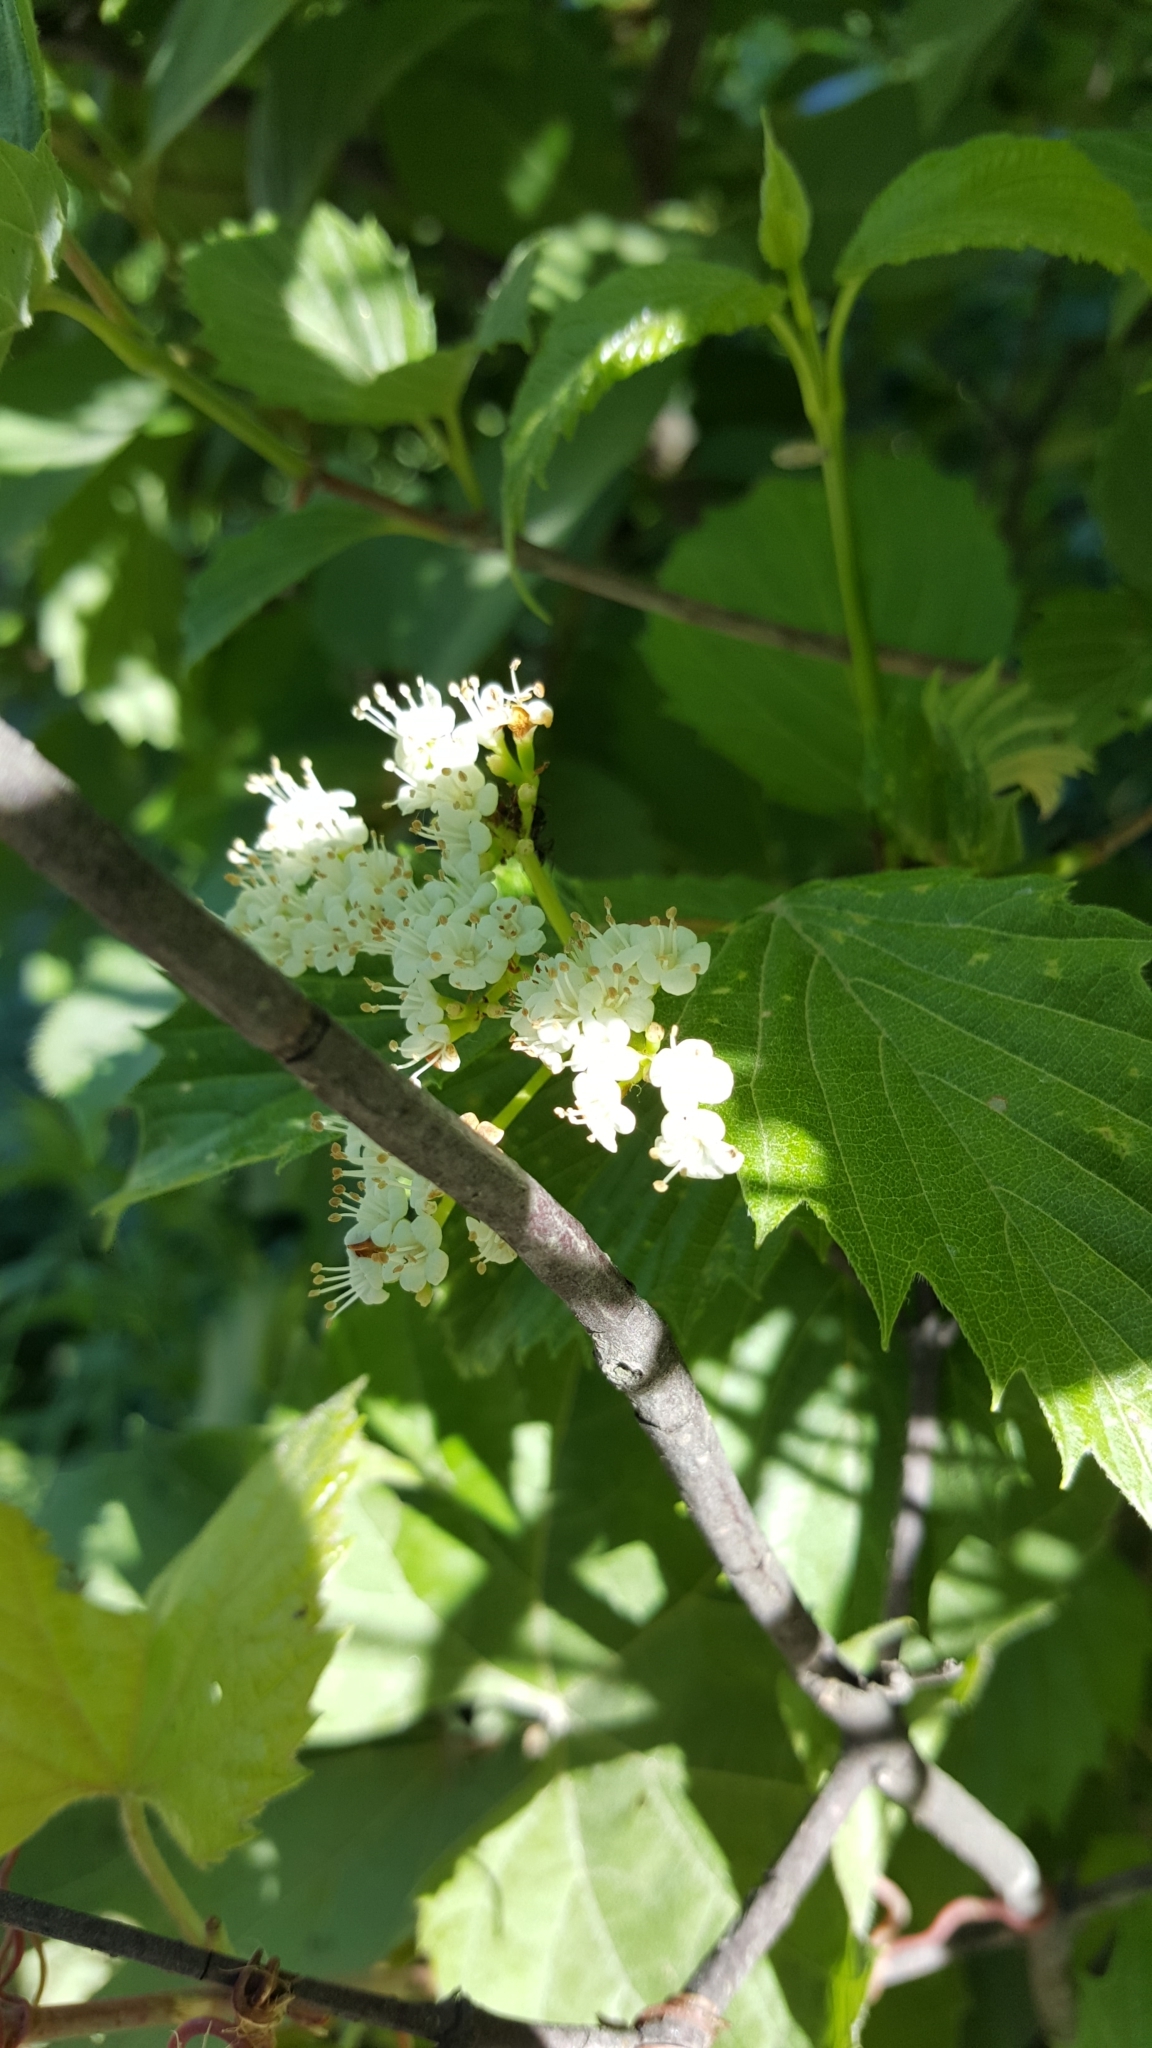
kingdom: Plantae
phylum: Tracheophyta
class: Magnoliopsida
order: Dipsacales
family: Viburnaceae
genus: Viburnum
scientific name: Viburnum dentatum
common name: Arrow-wood
